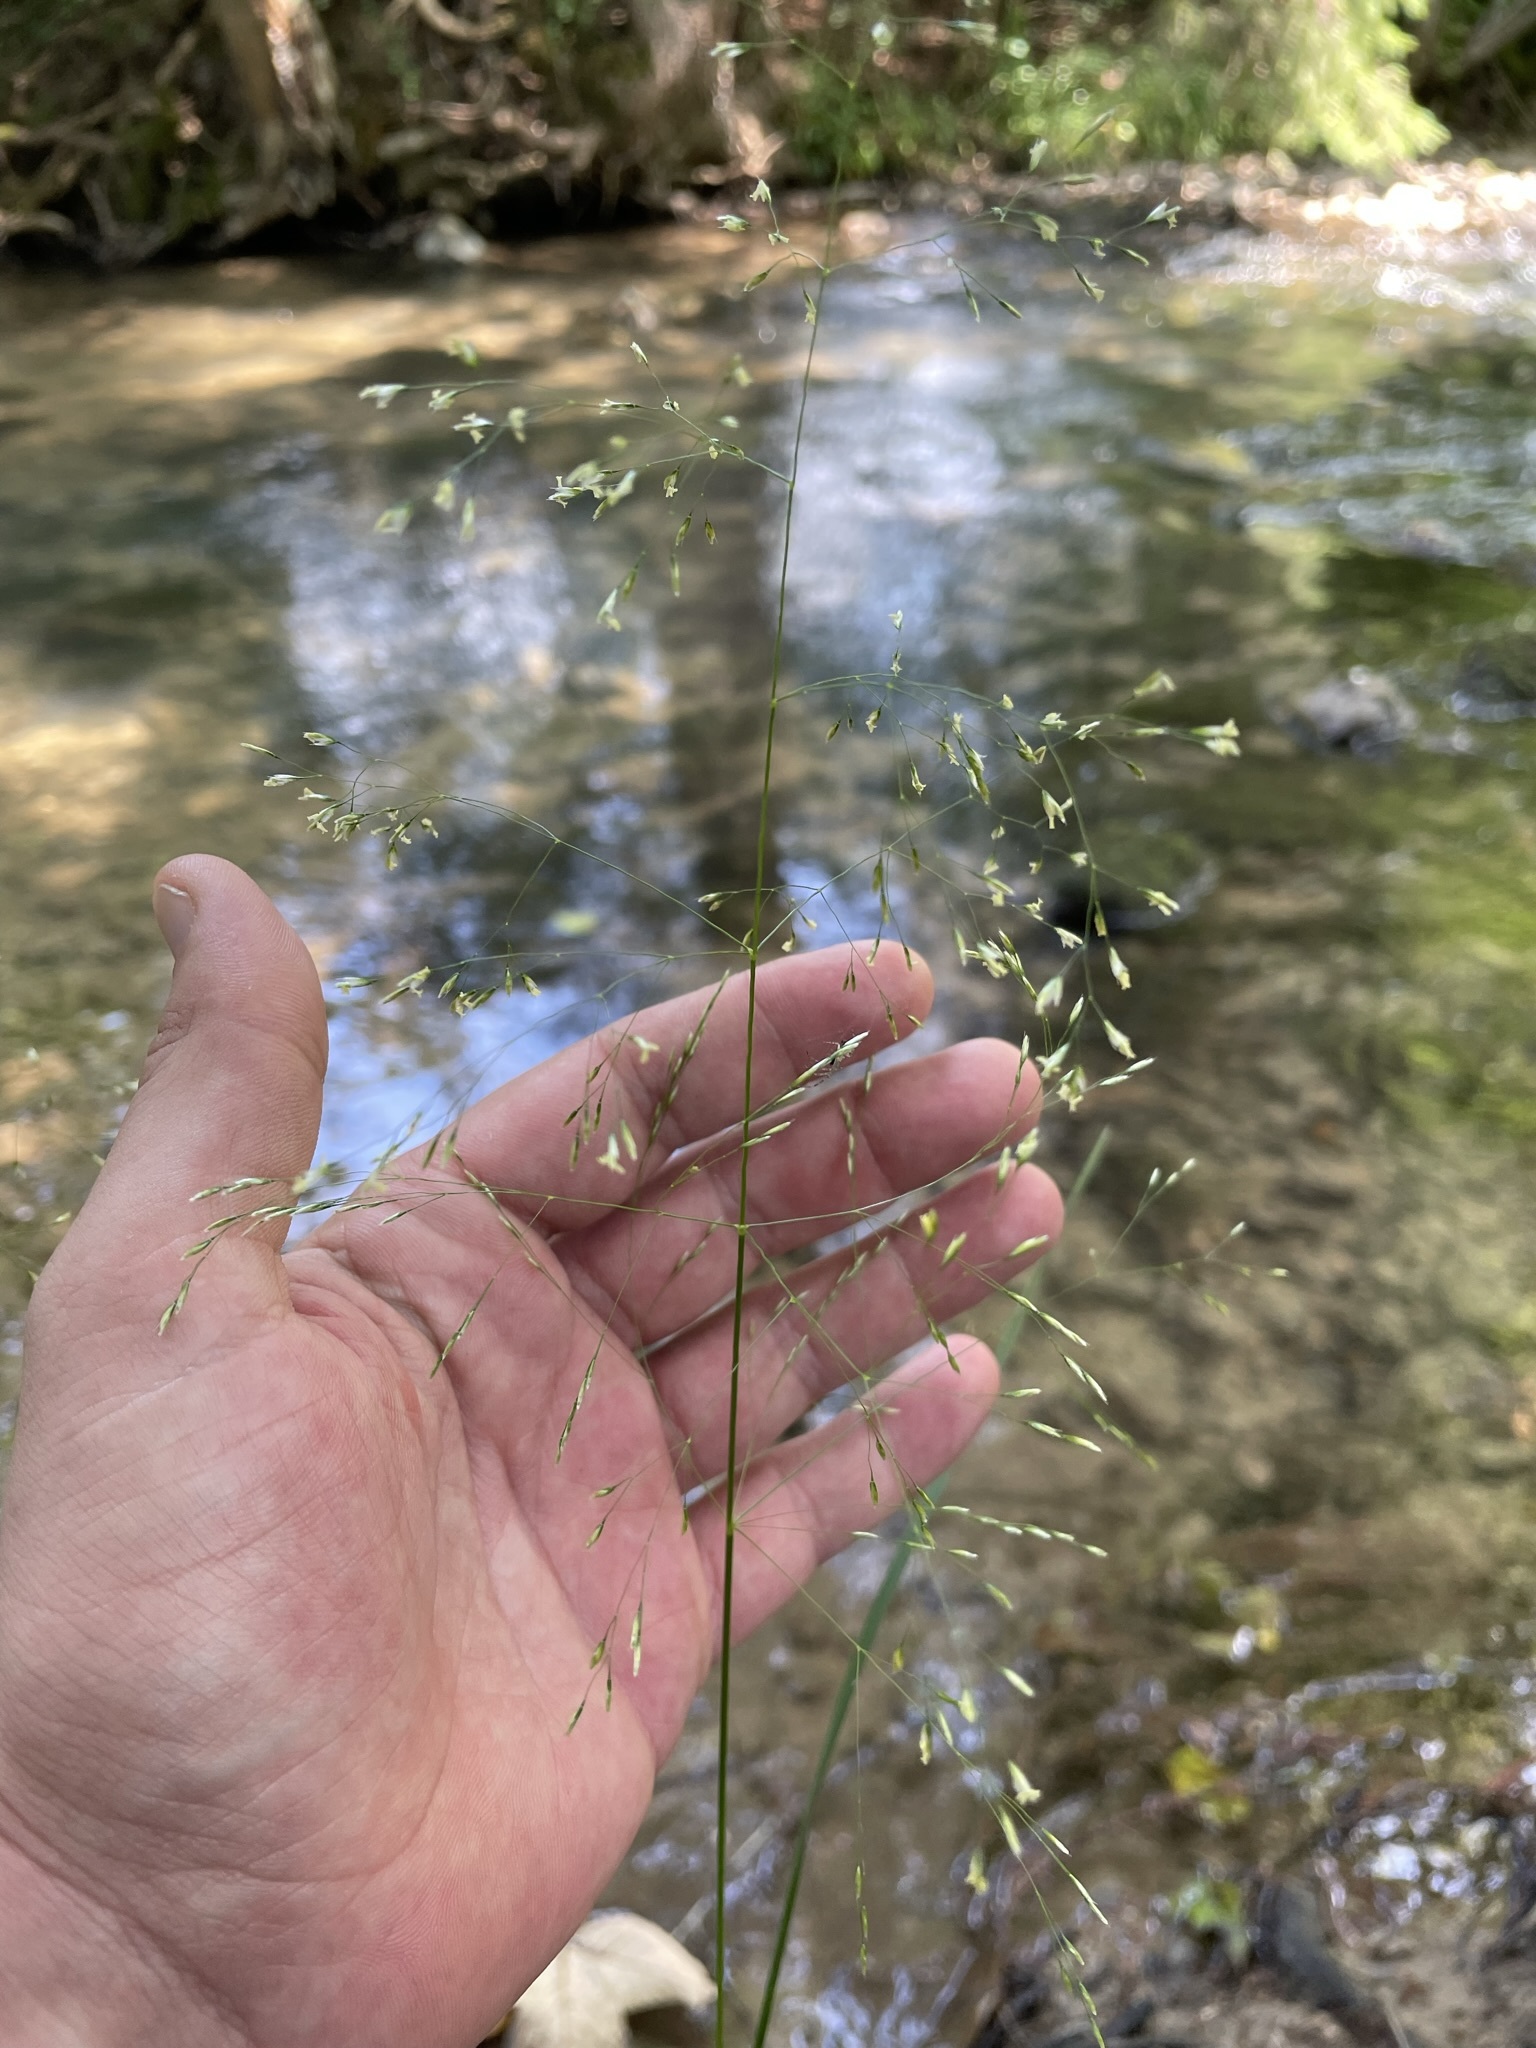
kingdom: Plantae
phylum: Tracheophyta
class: Liliopsida
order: Poales
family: Poaceae
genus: Deschampsia
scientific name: Deschampsia cespitosa
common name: Tufted hair-grass
